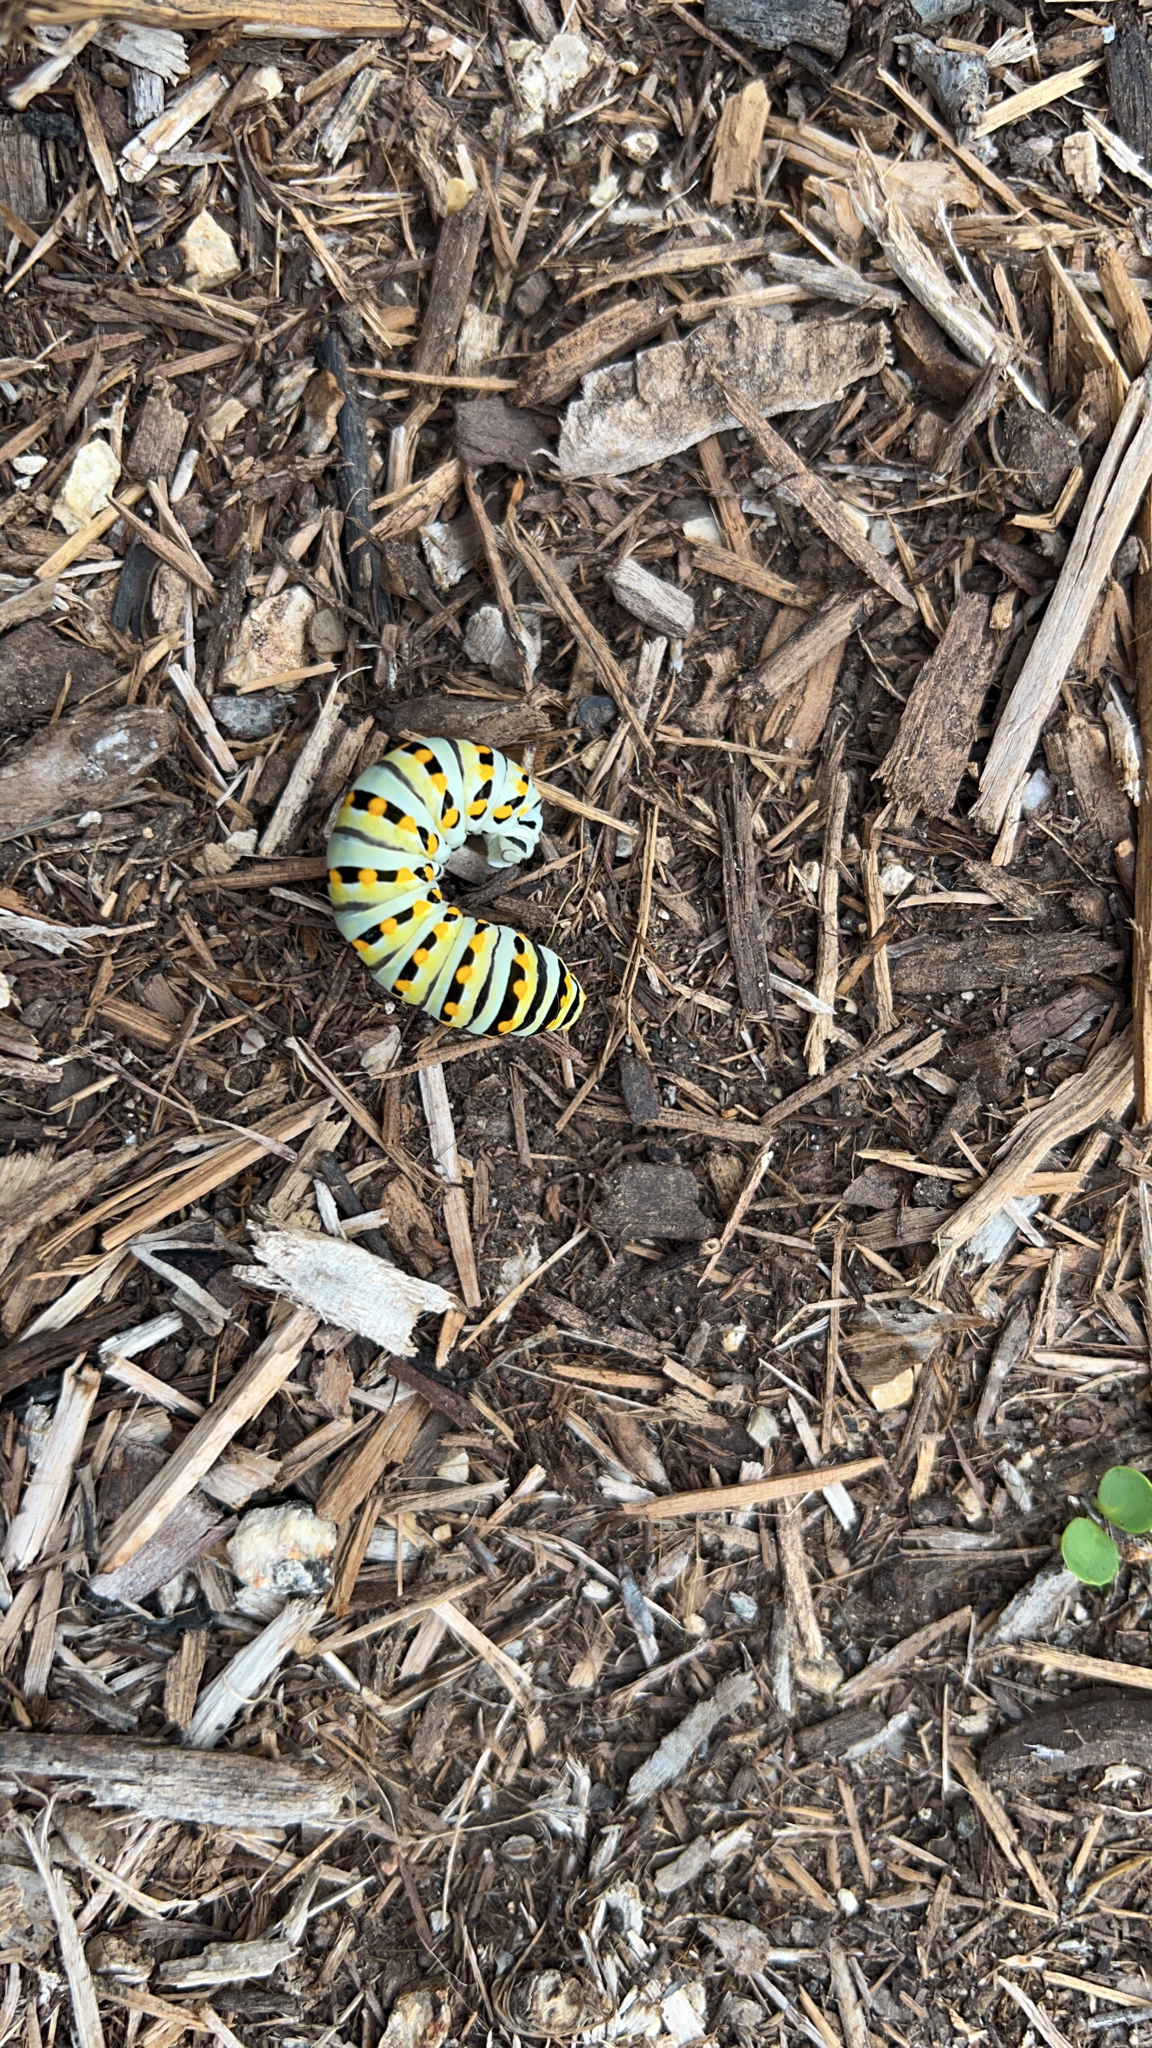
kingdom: Animalia
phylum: Arthropoda
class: Insecta
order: Lepidoptera
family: Papilionidae
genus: Papilio
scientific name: Papilio polyxenes
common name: Black swallowtail
